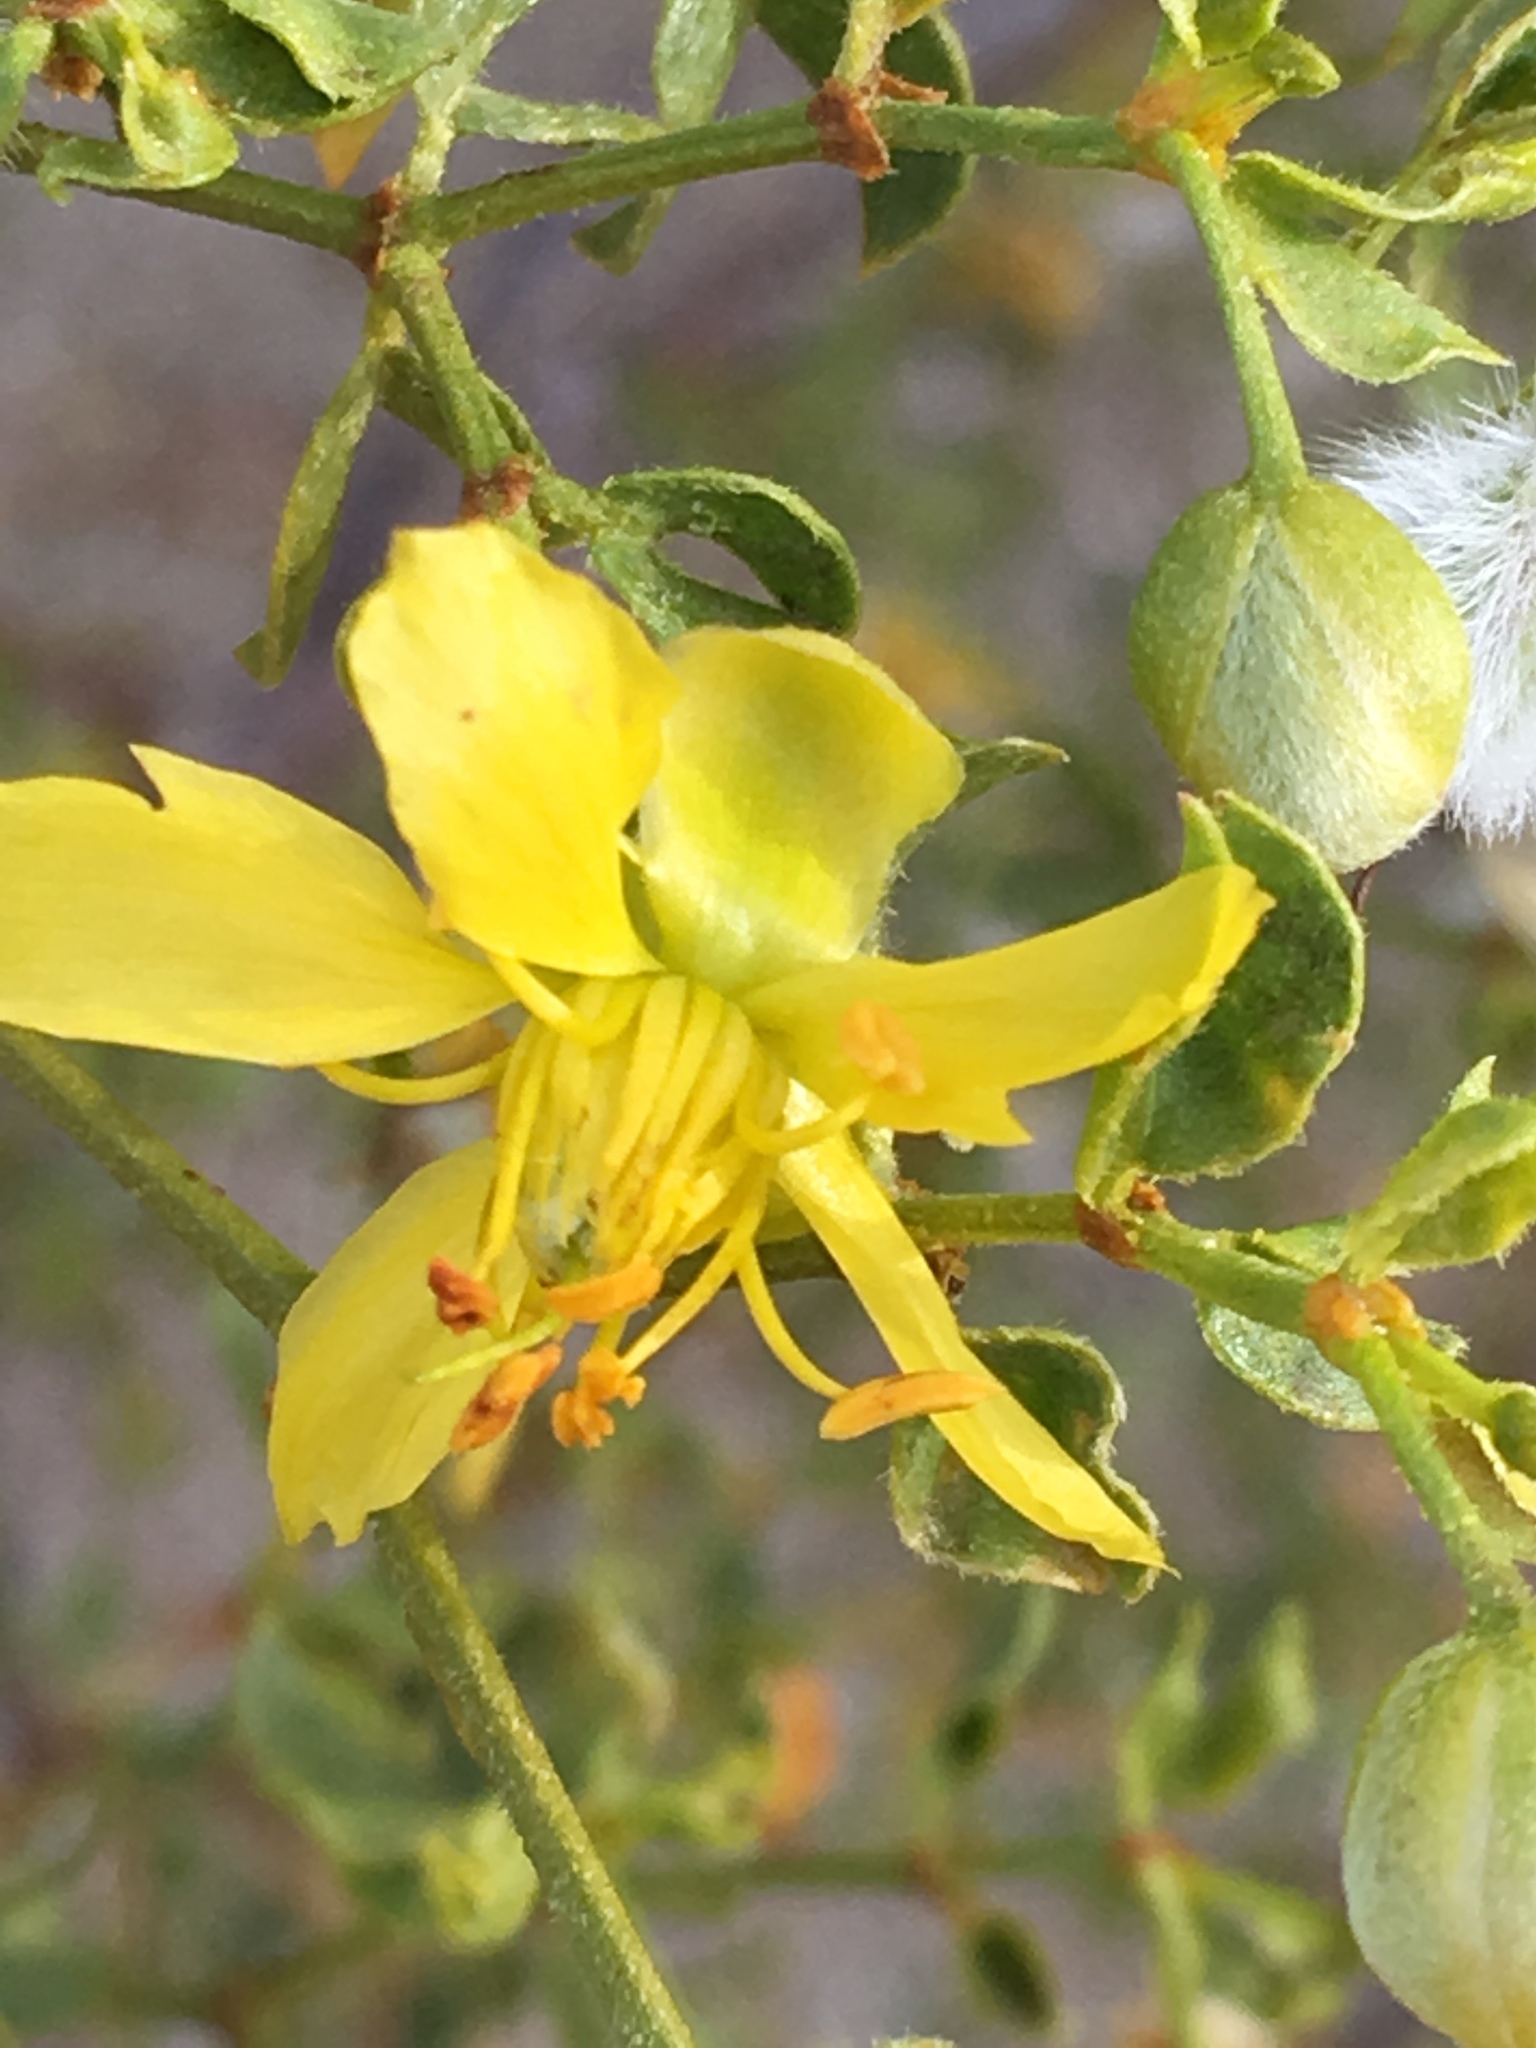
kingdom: Plantae
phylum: Tracheophyta
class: Magnoliopsida
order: Zygophyllales
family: Zygophyllaceae
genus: Larrea
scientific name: Larrea tridentata
